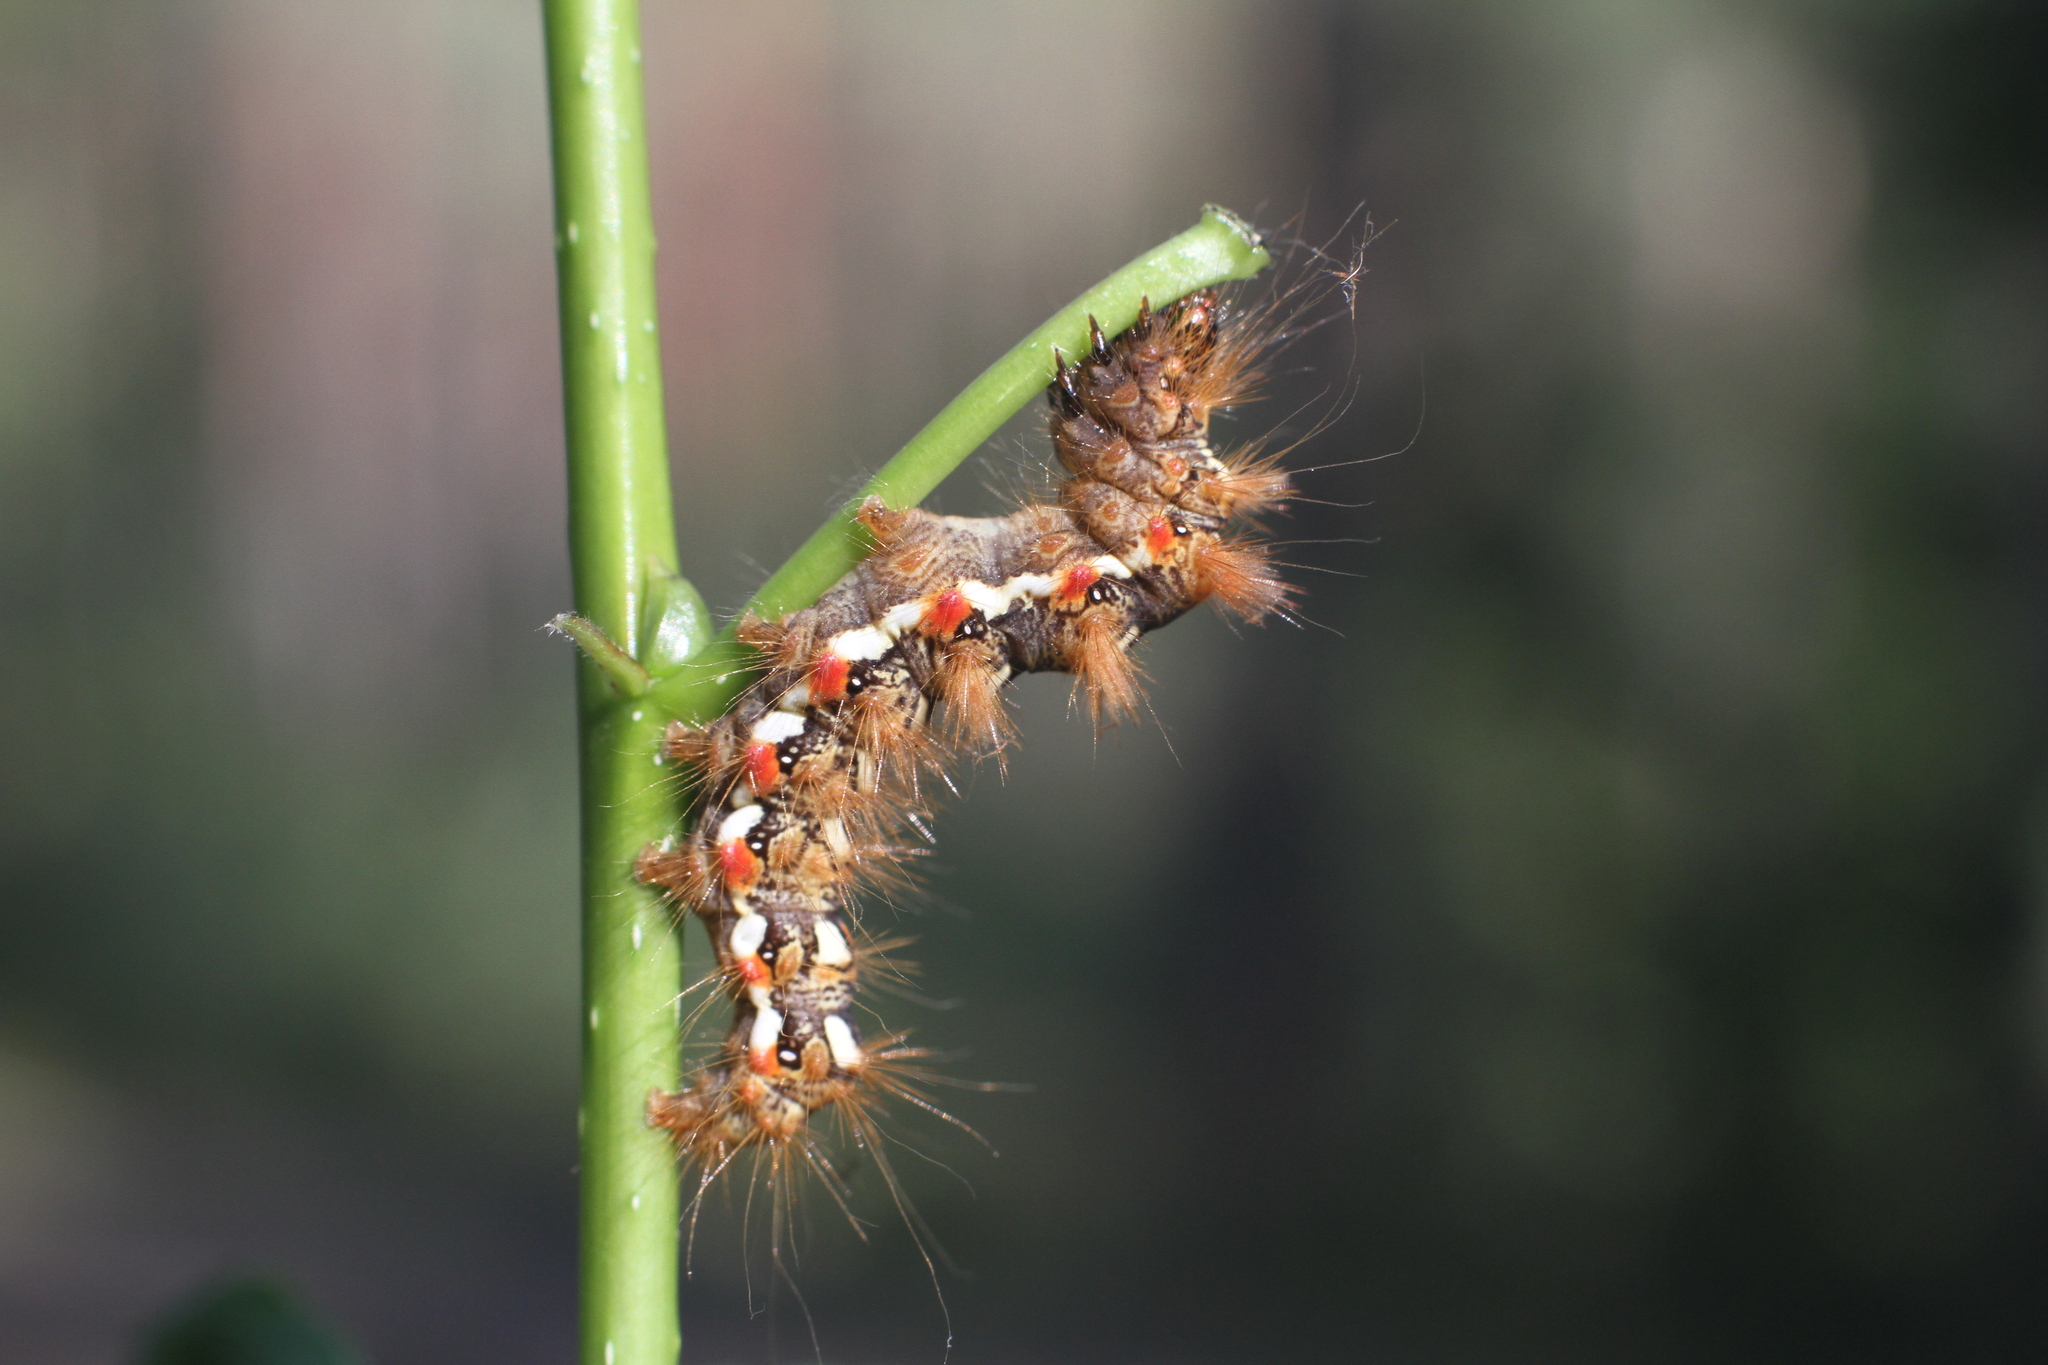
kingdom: Animalia
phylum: Arthropoda
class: Insecta
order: Lepidoptera
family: Noctuidae
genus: Acronicta
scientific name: Acronicta rumicis
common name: Knot grass
